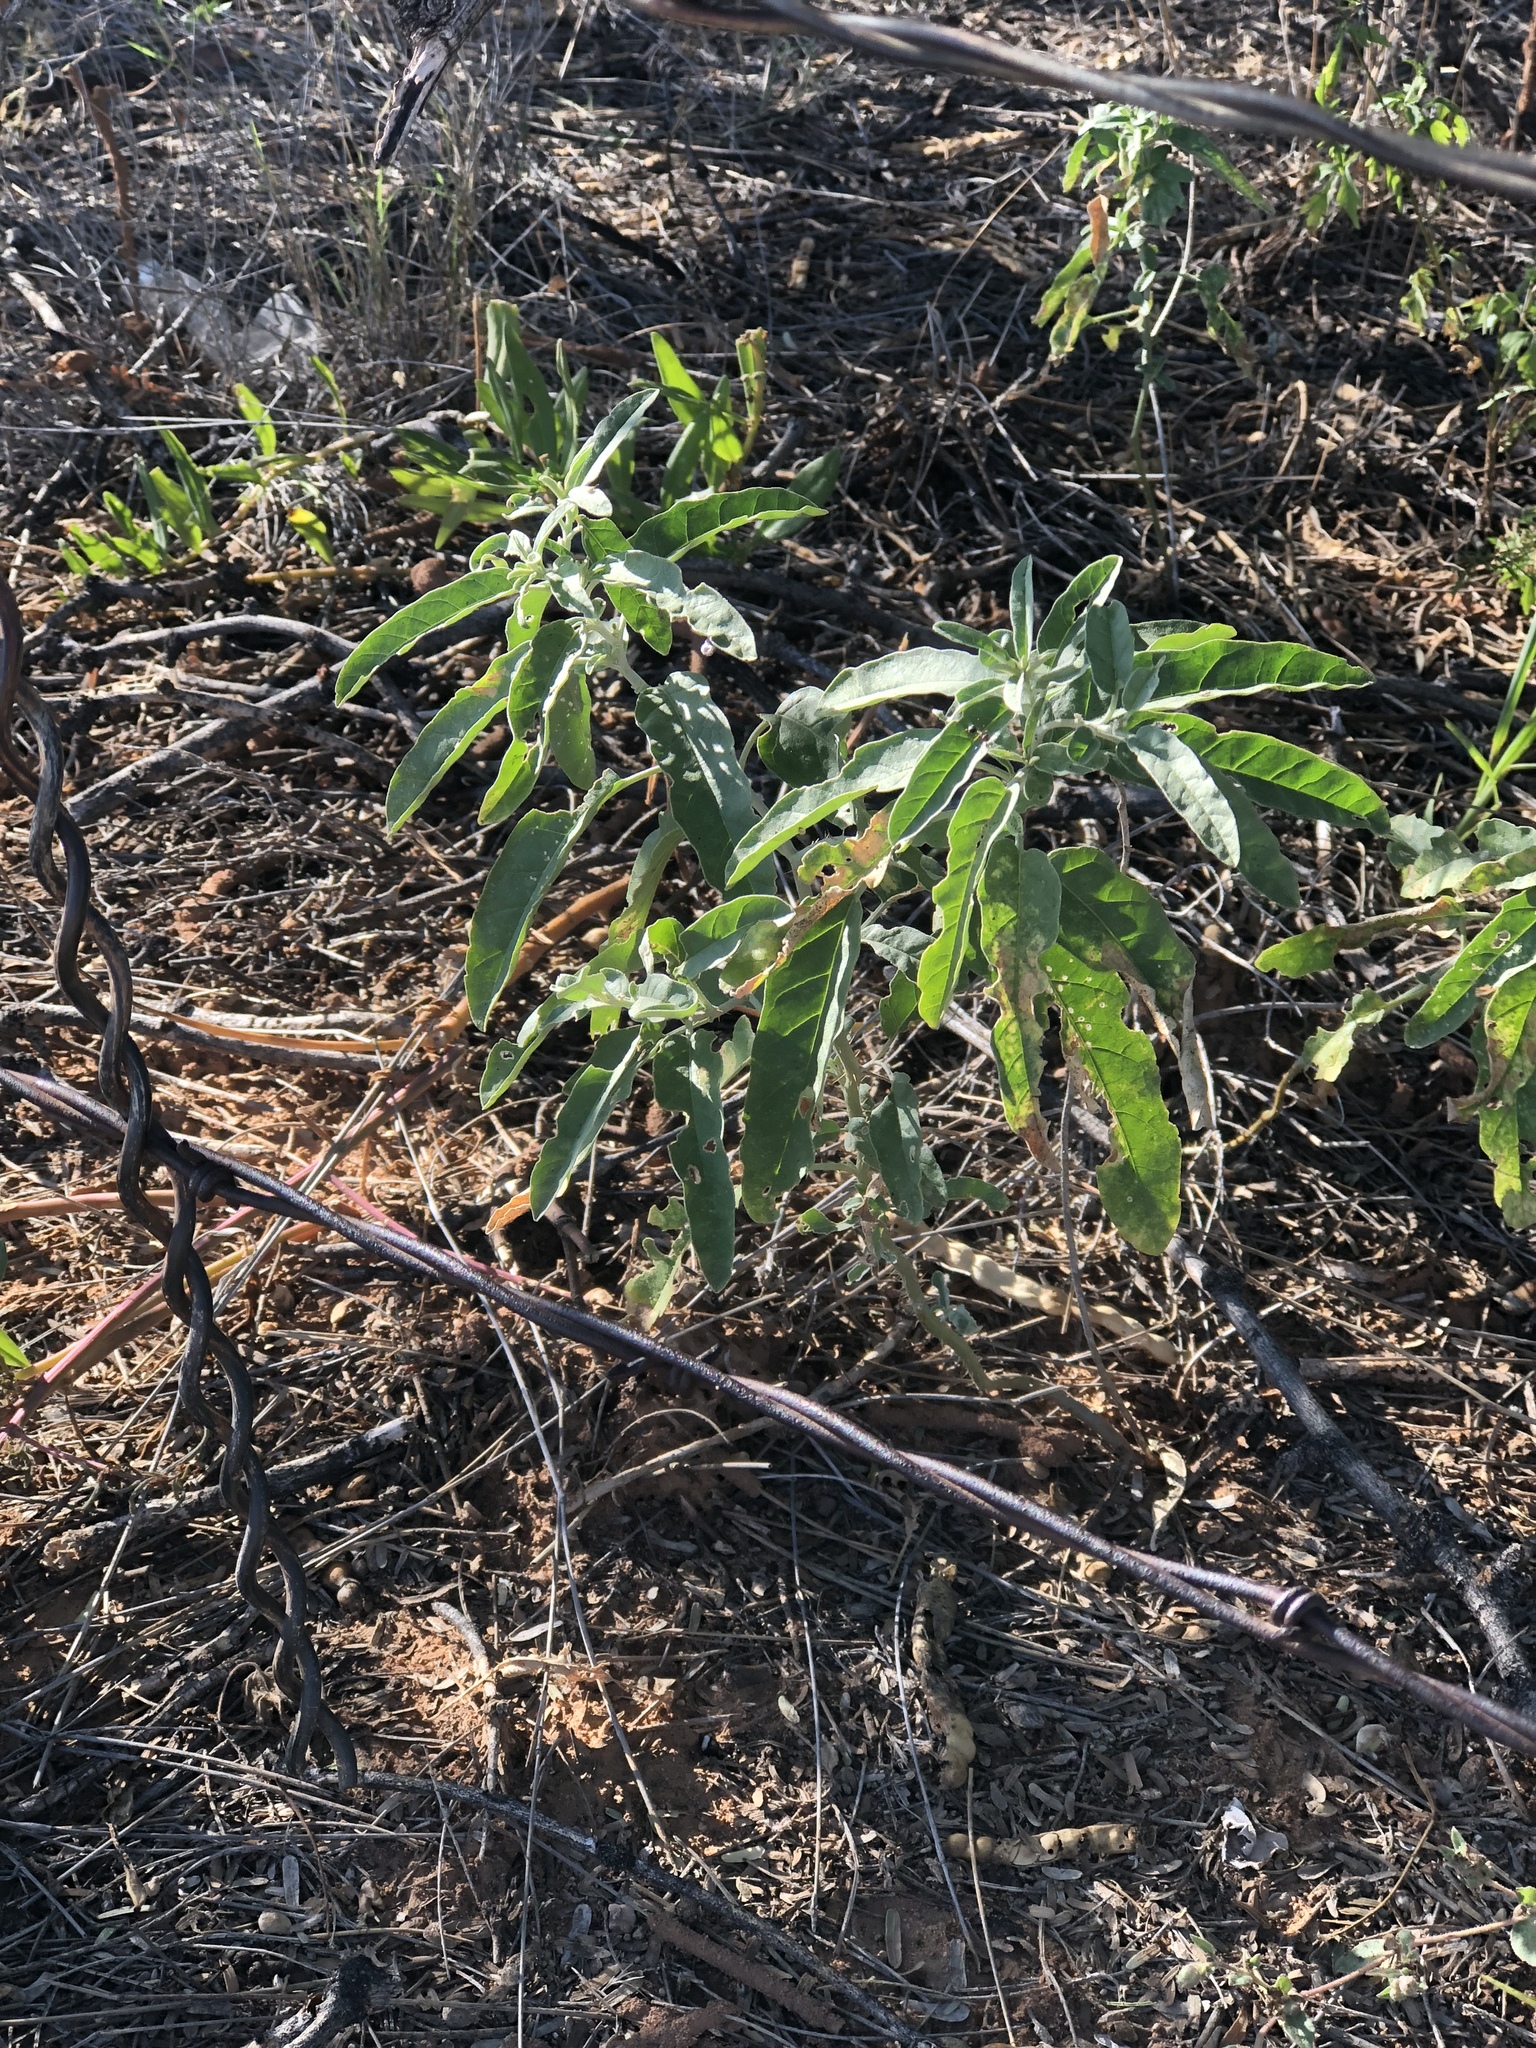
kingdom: Plantae
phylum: Tracheophyta
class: Magnoliopsida
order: Solanales
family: Solanaceae
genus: Solanum
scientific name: Solanum elaeagnifolium
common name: Silverleaf nightshade
